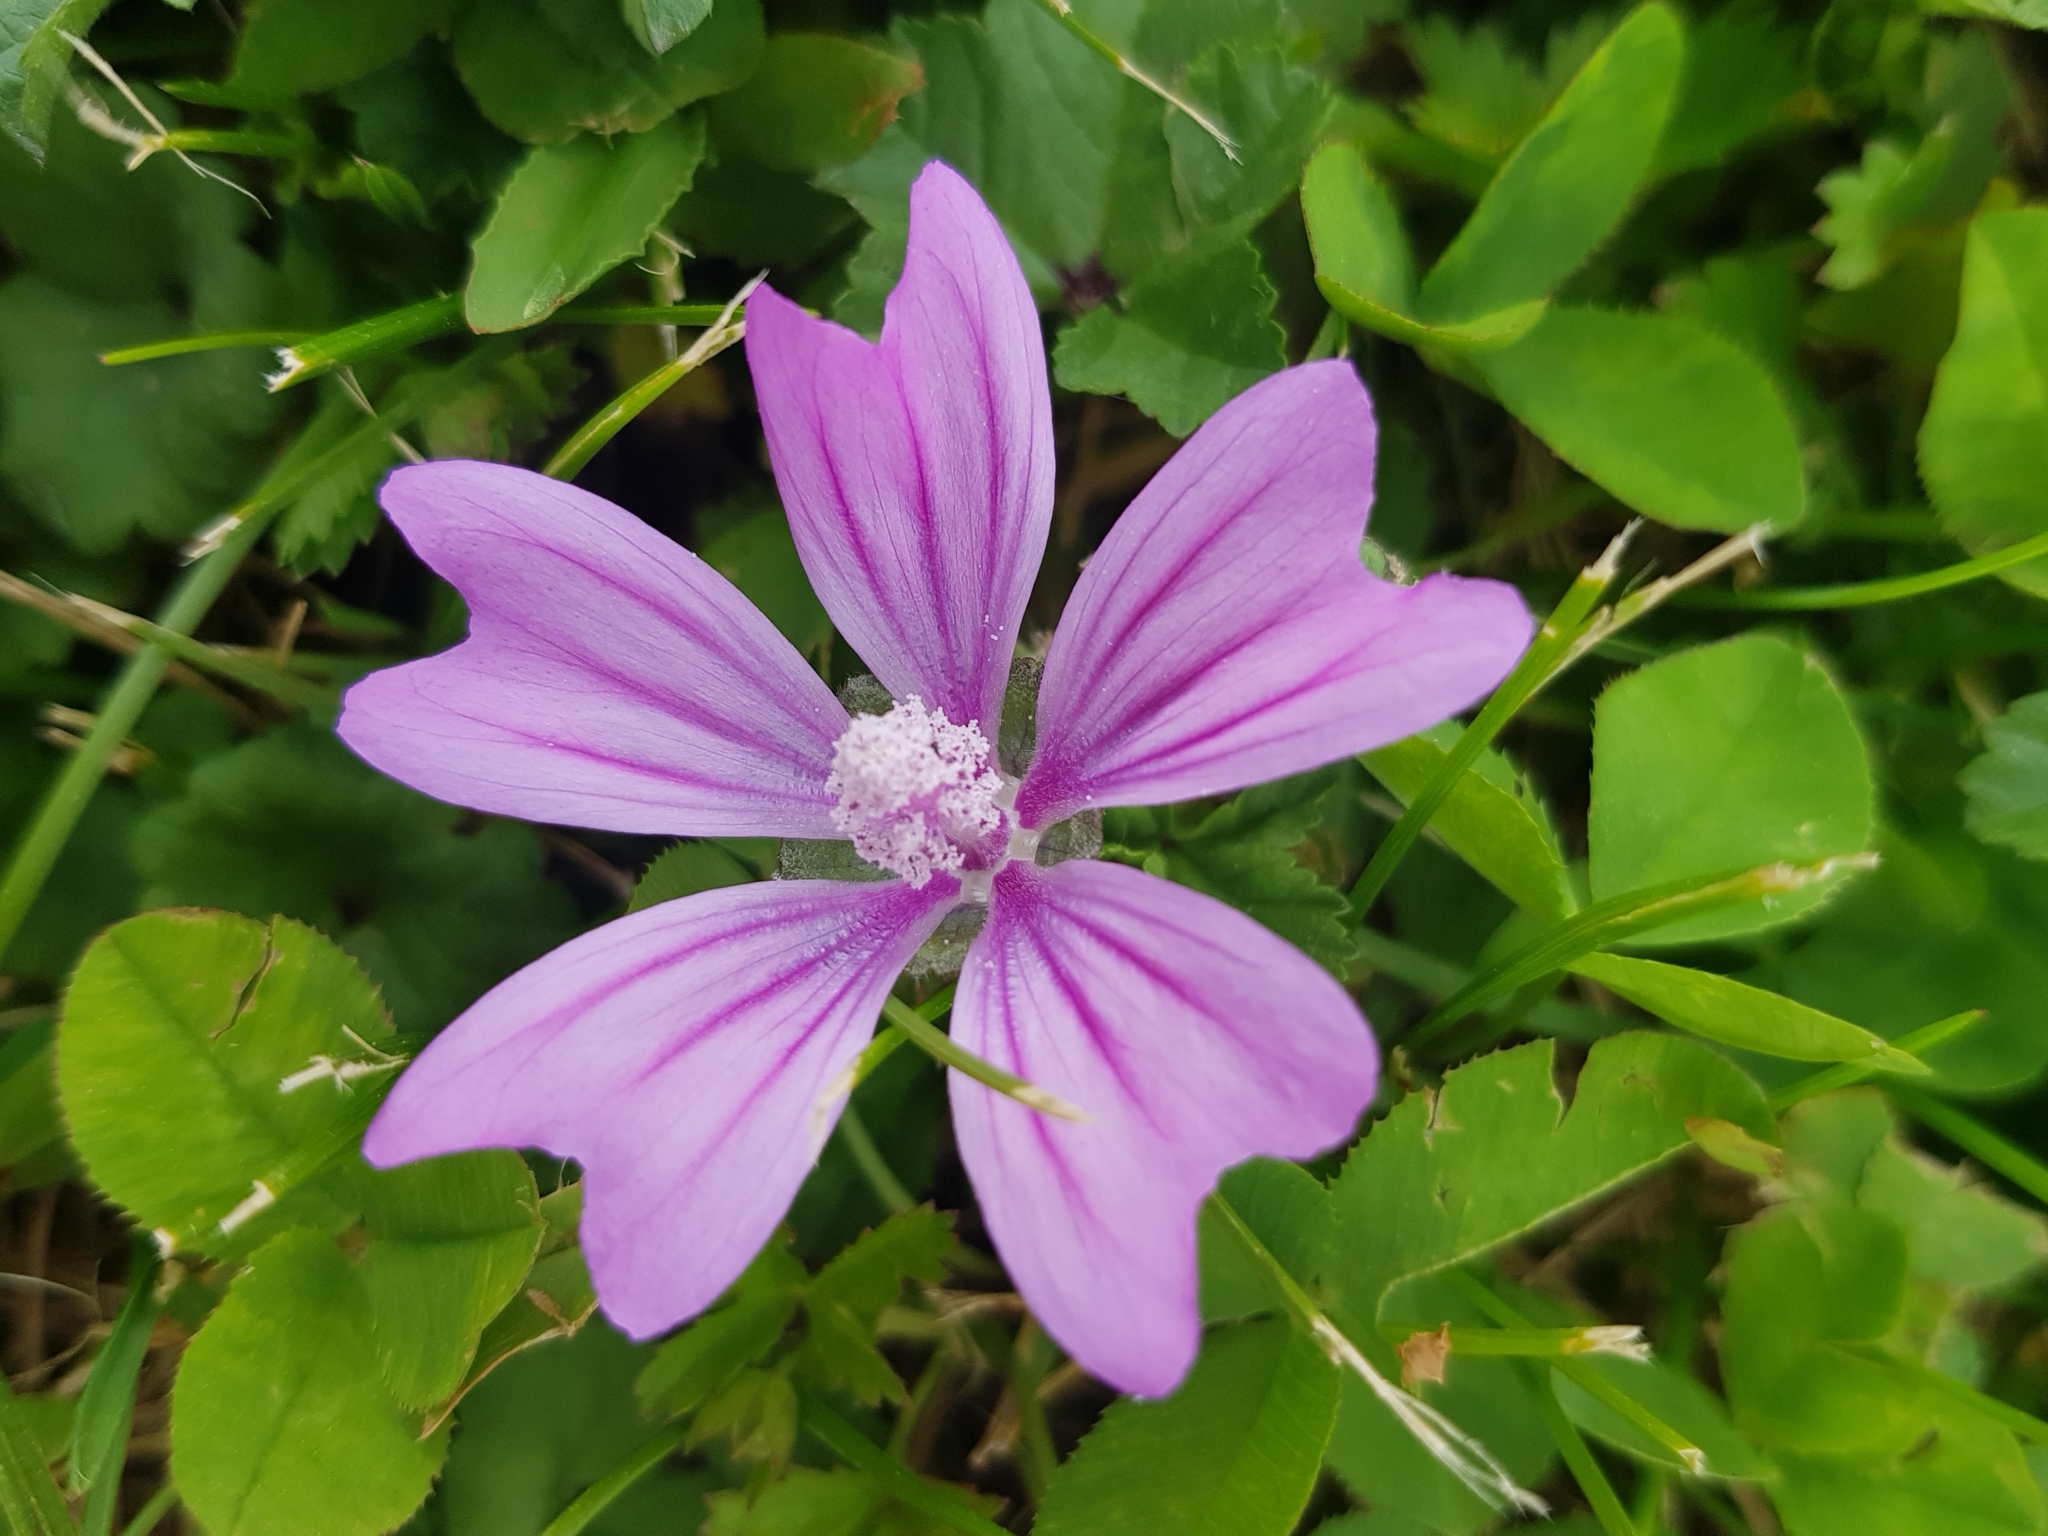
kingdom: Plantae
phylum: Tracheophyta
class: Magnoliopsida
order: Malvales
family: Malvaceae
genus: Malva
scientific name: Malva sylvestris
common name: Common mallow
